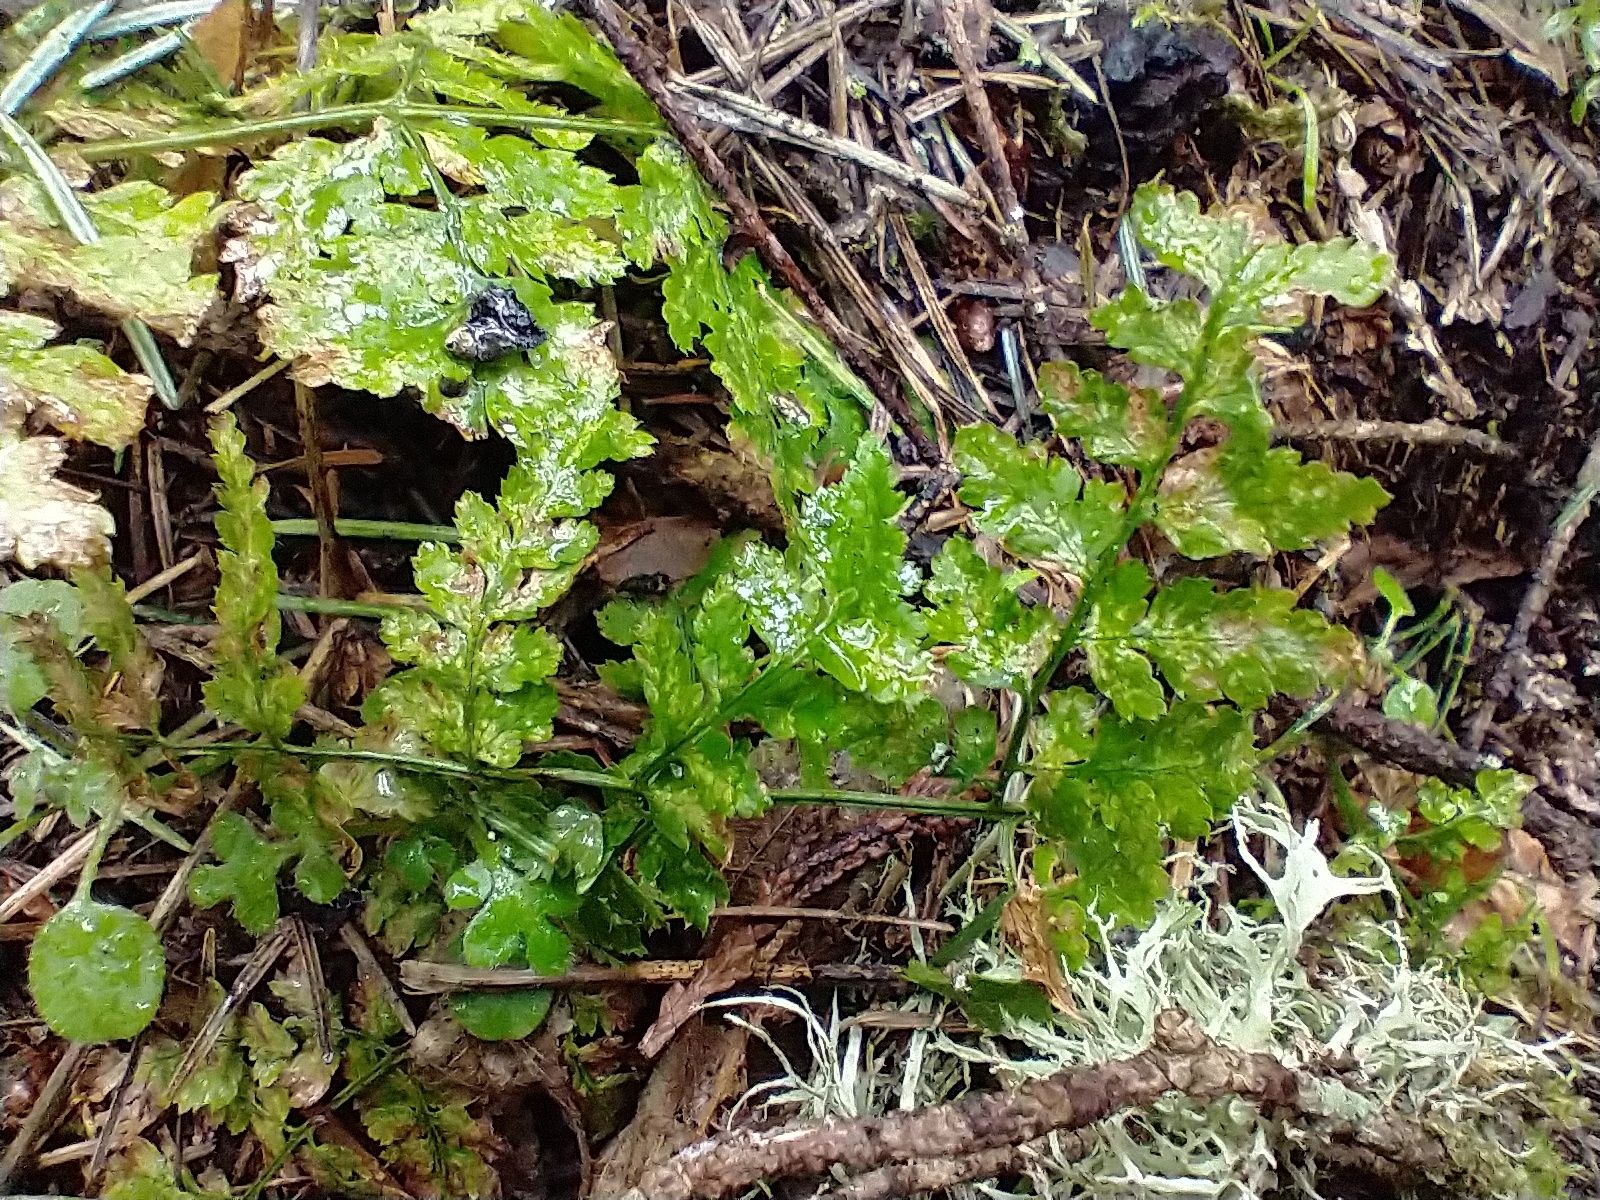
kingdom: Plantae
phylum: Tracheophyta
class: Polypodiopsida
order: Polypodiales
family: Dryopteridaceae
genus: Dryopteris
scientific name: Dryopteris expansa
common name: Northern buckler fern
